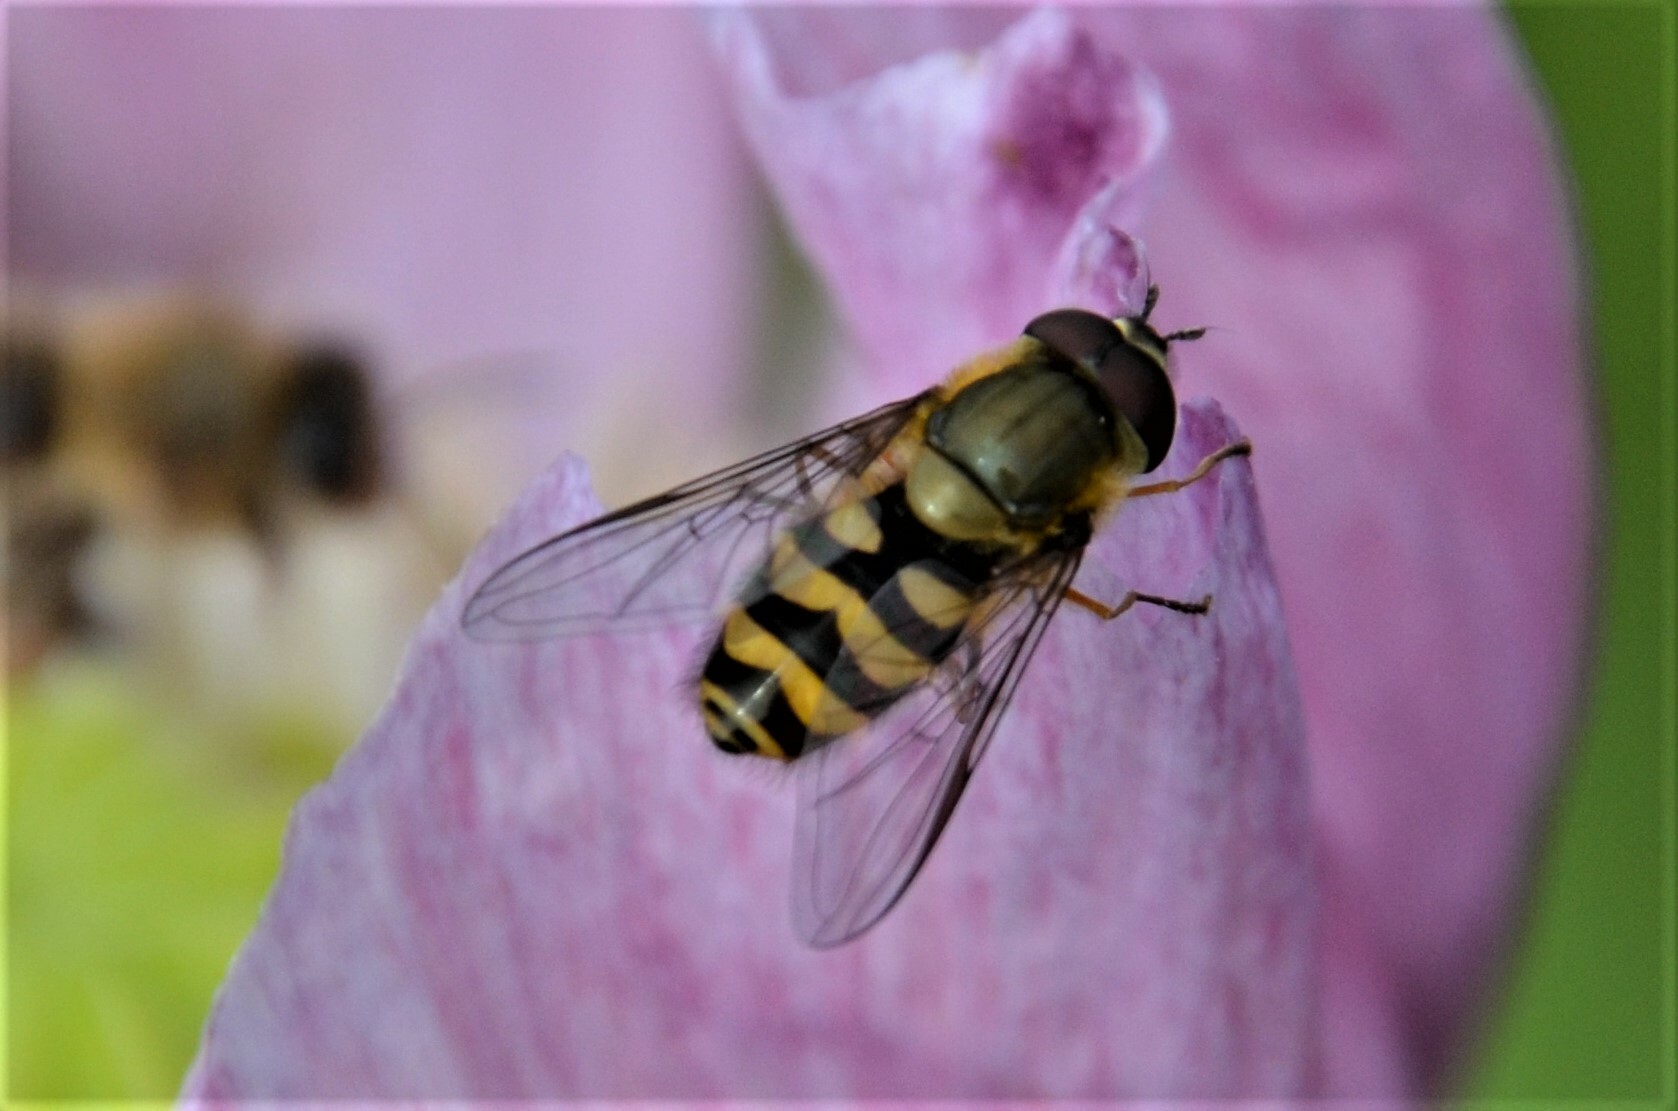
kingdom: Animalia
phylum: Arthropoda
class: Insecta
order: Diptera
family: Syrphidae
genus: Syrphus
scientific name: Syrphus
